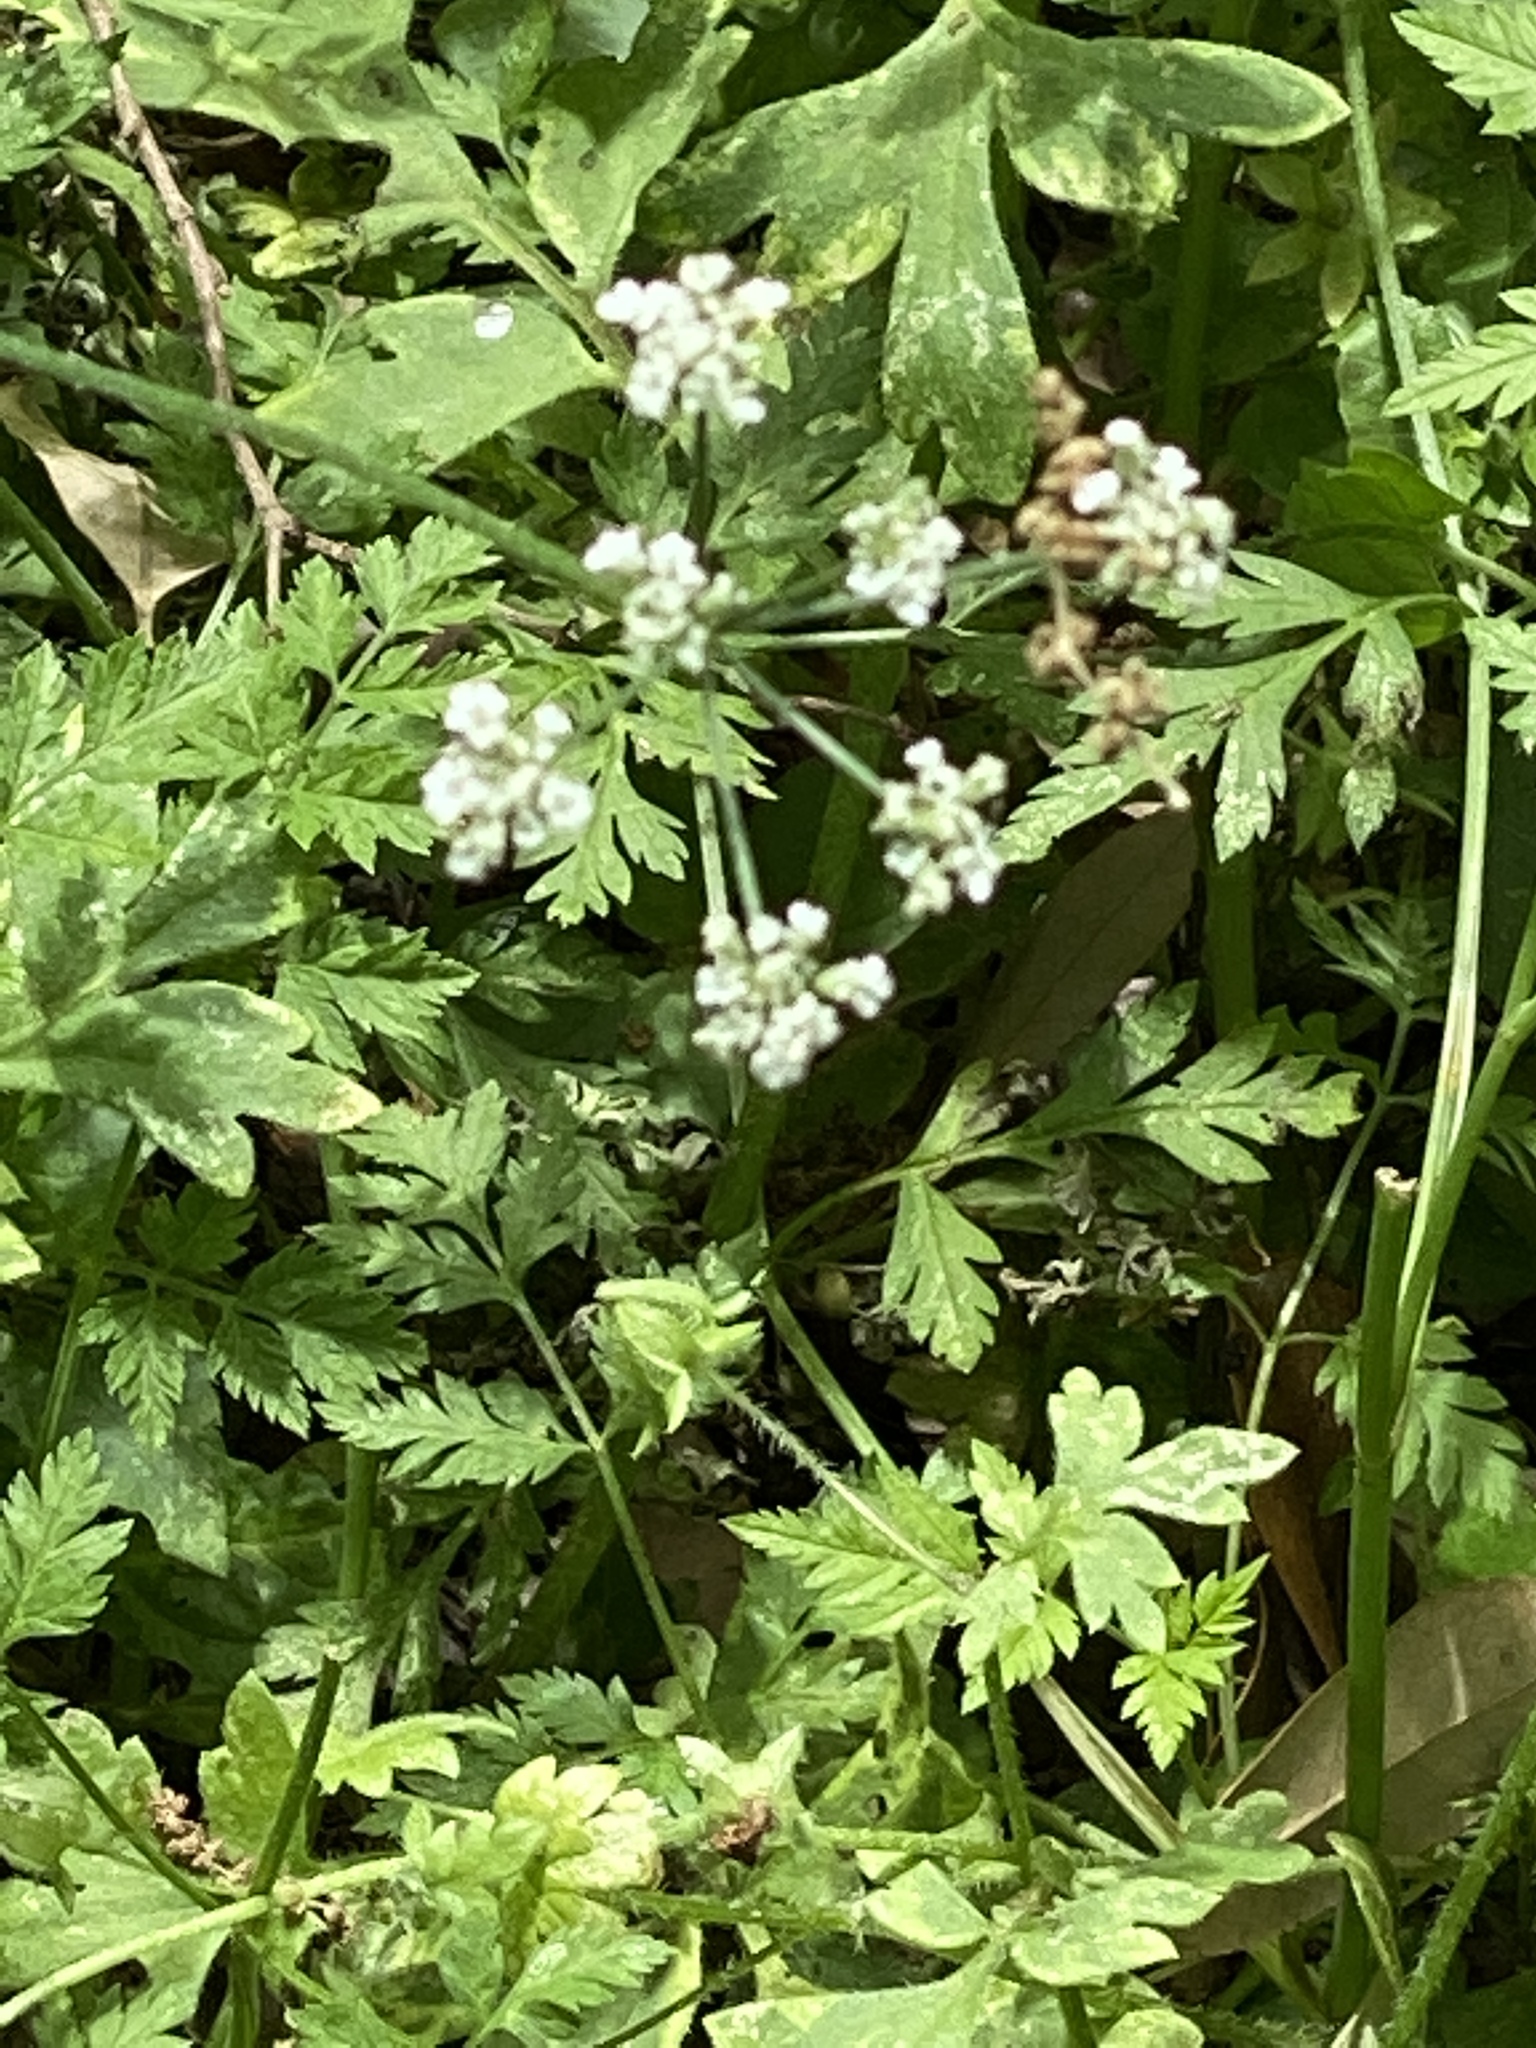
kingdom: Plantae
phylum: Tracheophyta
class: Magnoliopsida
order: Apiales
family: Apiaceae
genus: Torilis
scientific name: Torilis arvensis
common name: Spreading hedge-parsley
